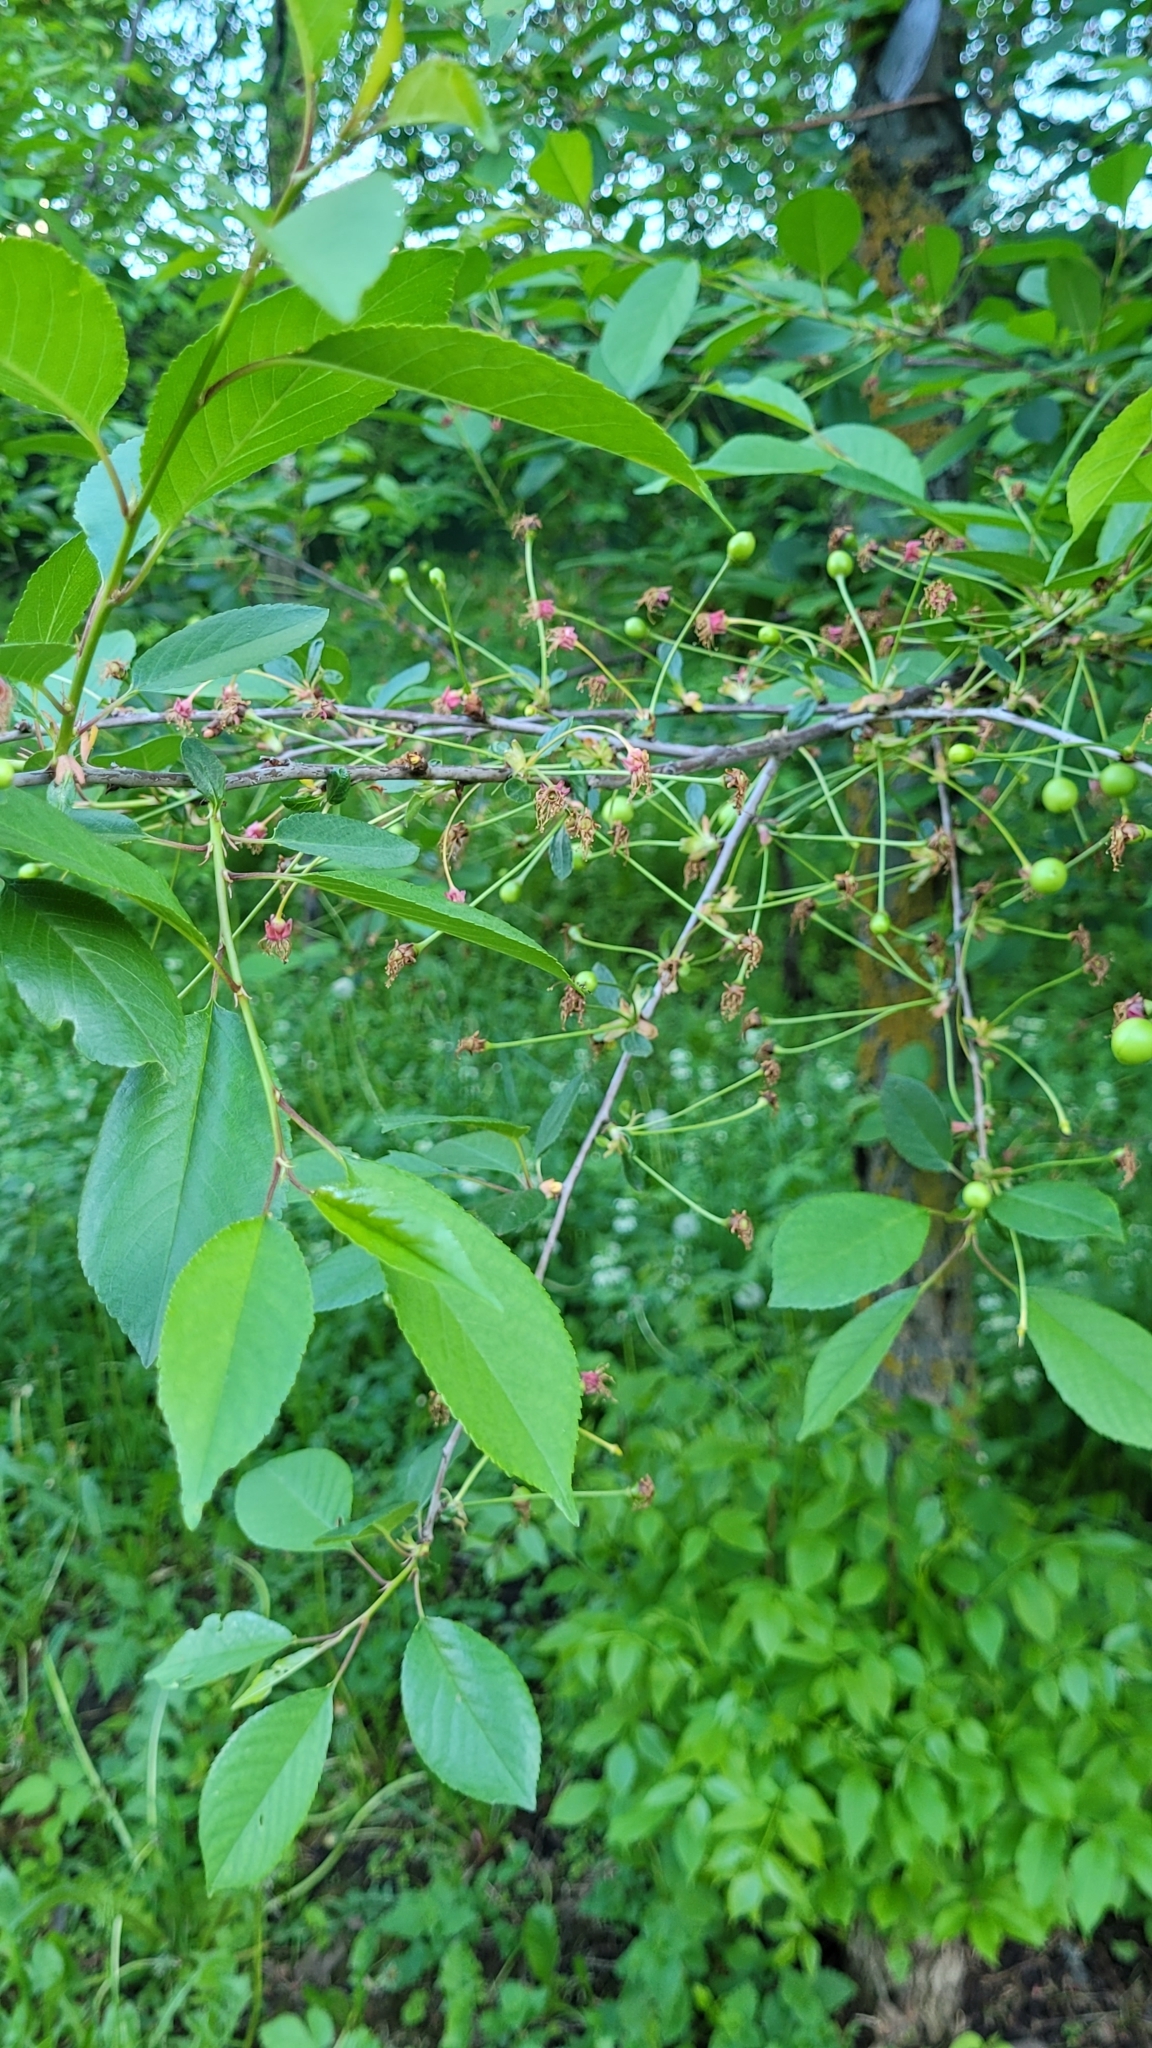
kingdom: Plantae
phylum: Tracheophyta
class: Magnoliopsida
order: Rosales
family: Rosaceae
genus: Prunus
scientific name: Prunus cerasus
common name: Morello cherry
